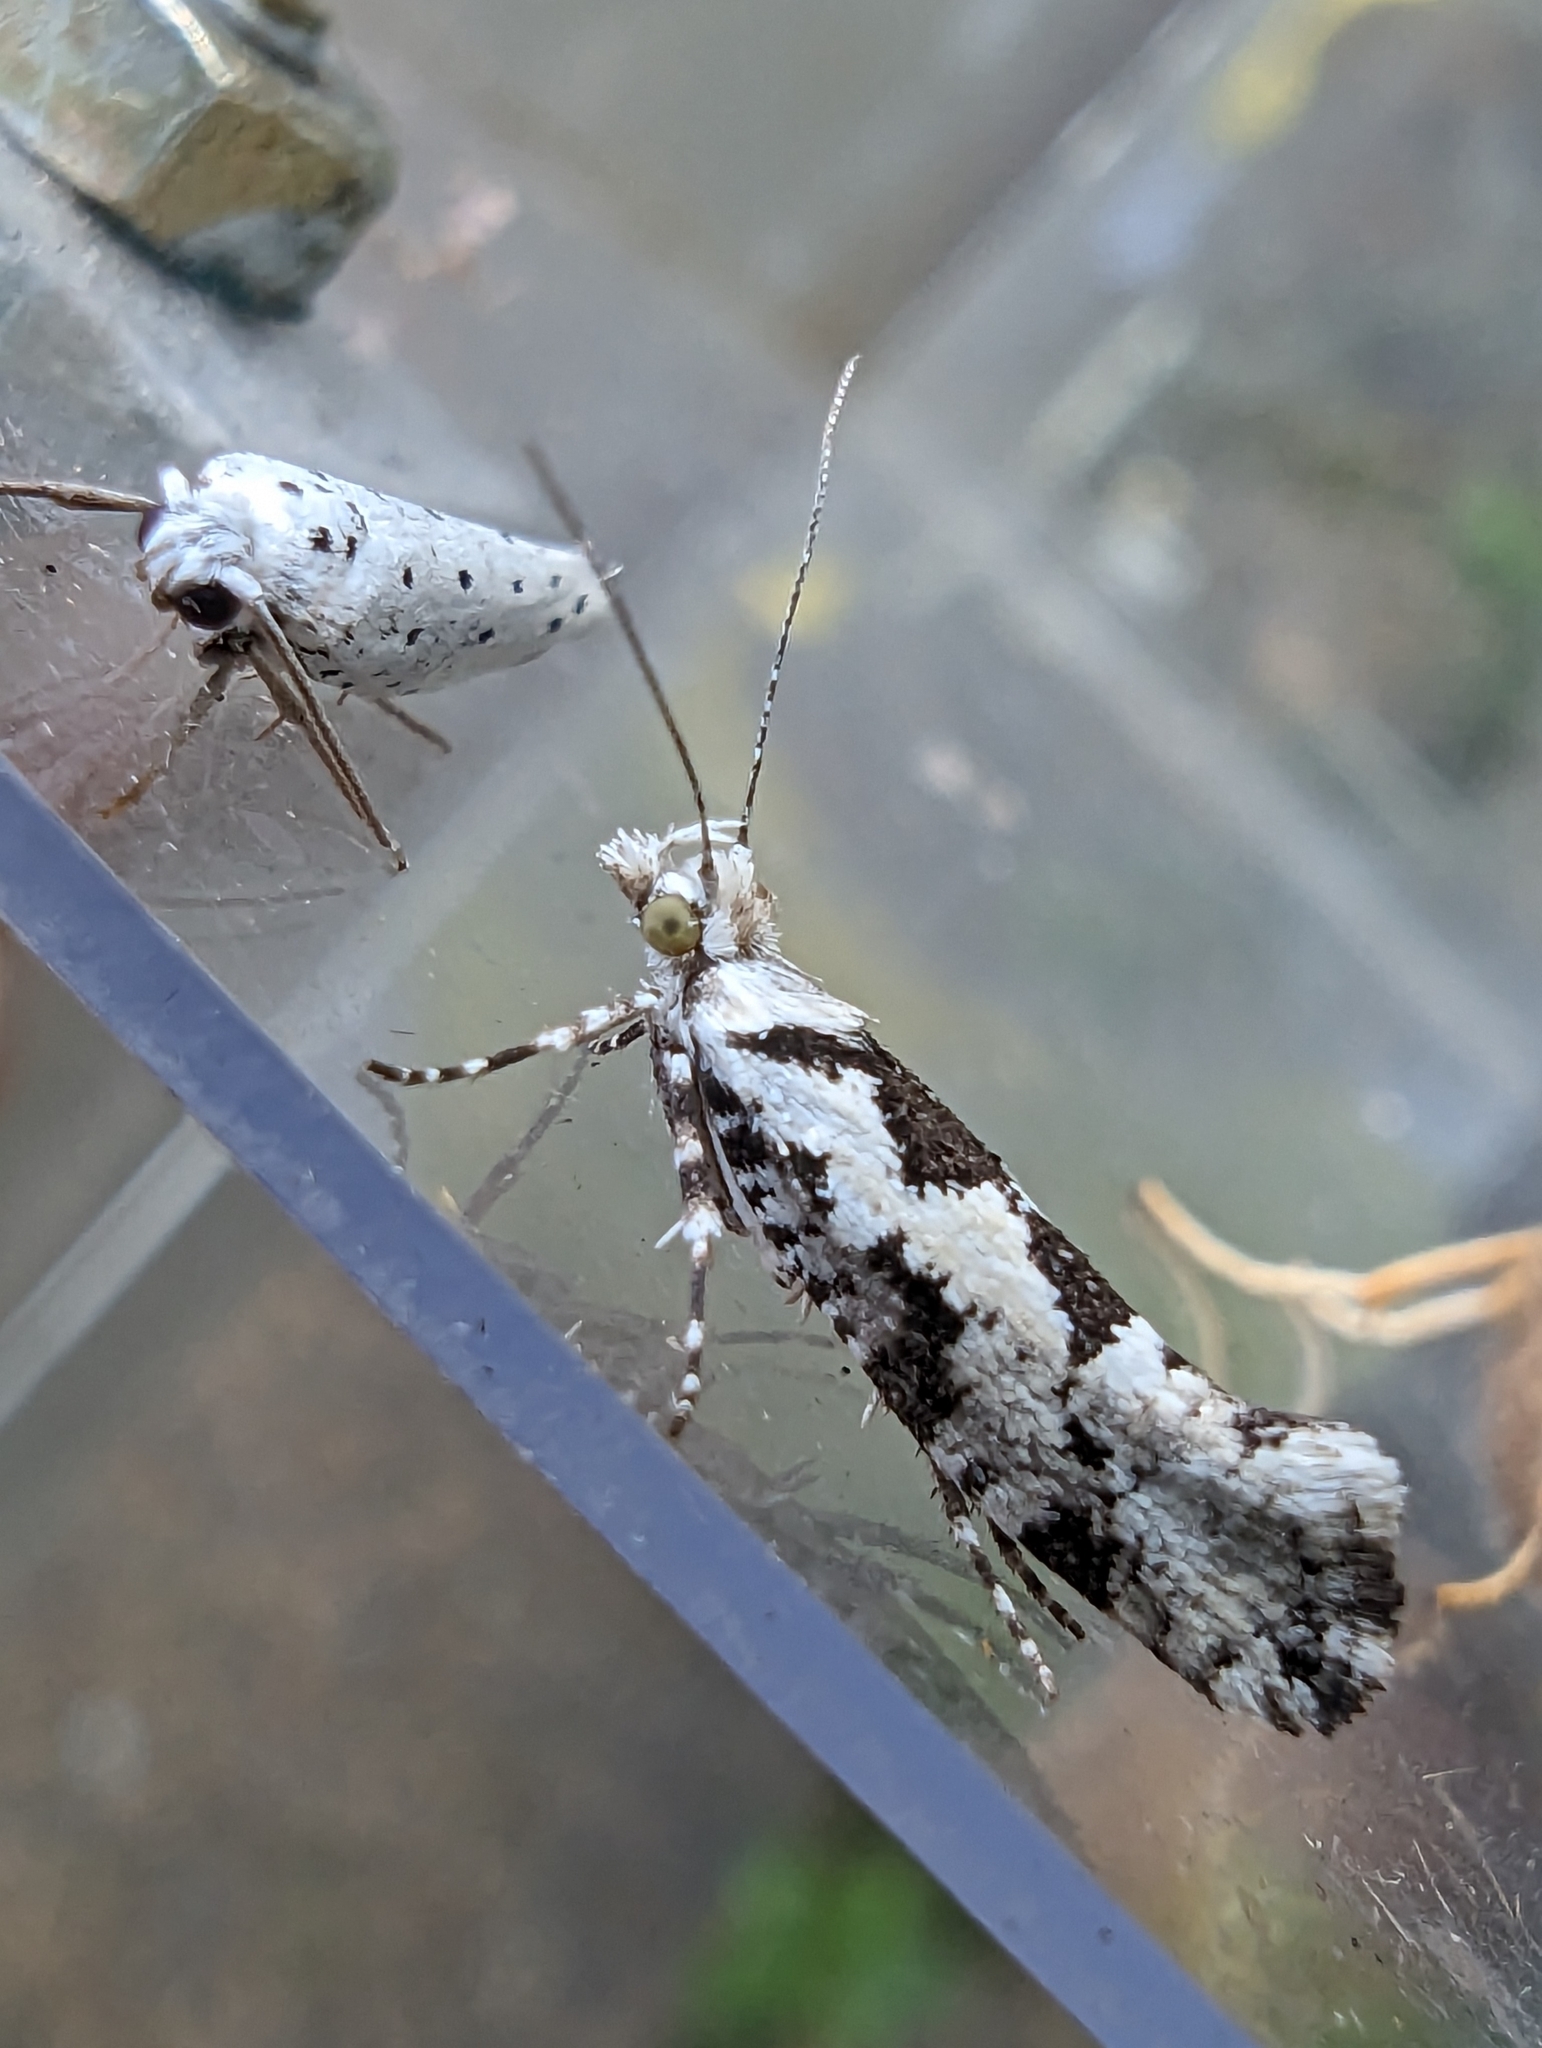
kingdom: Animalia
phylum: Arthropoda
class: Insecta
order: Lepidoptera
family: Plutellidae
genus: Ypsolophus
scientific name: Ypsolophus sequella
